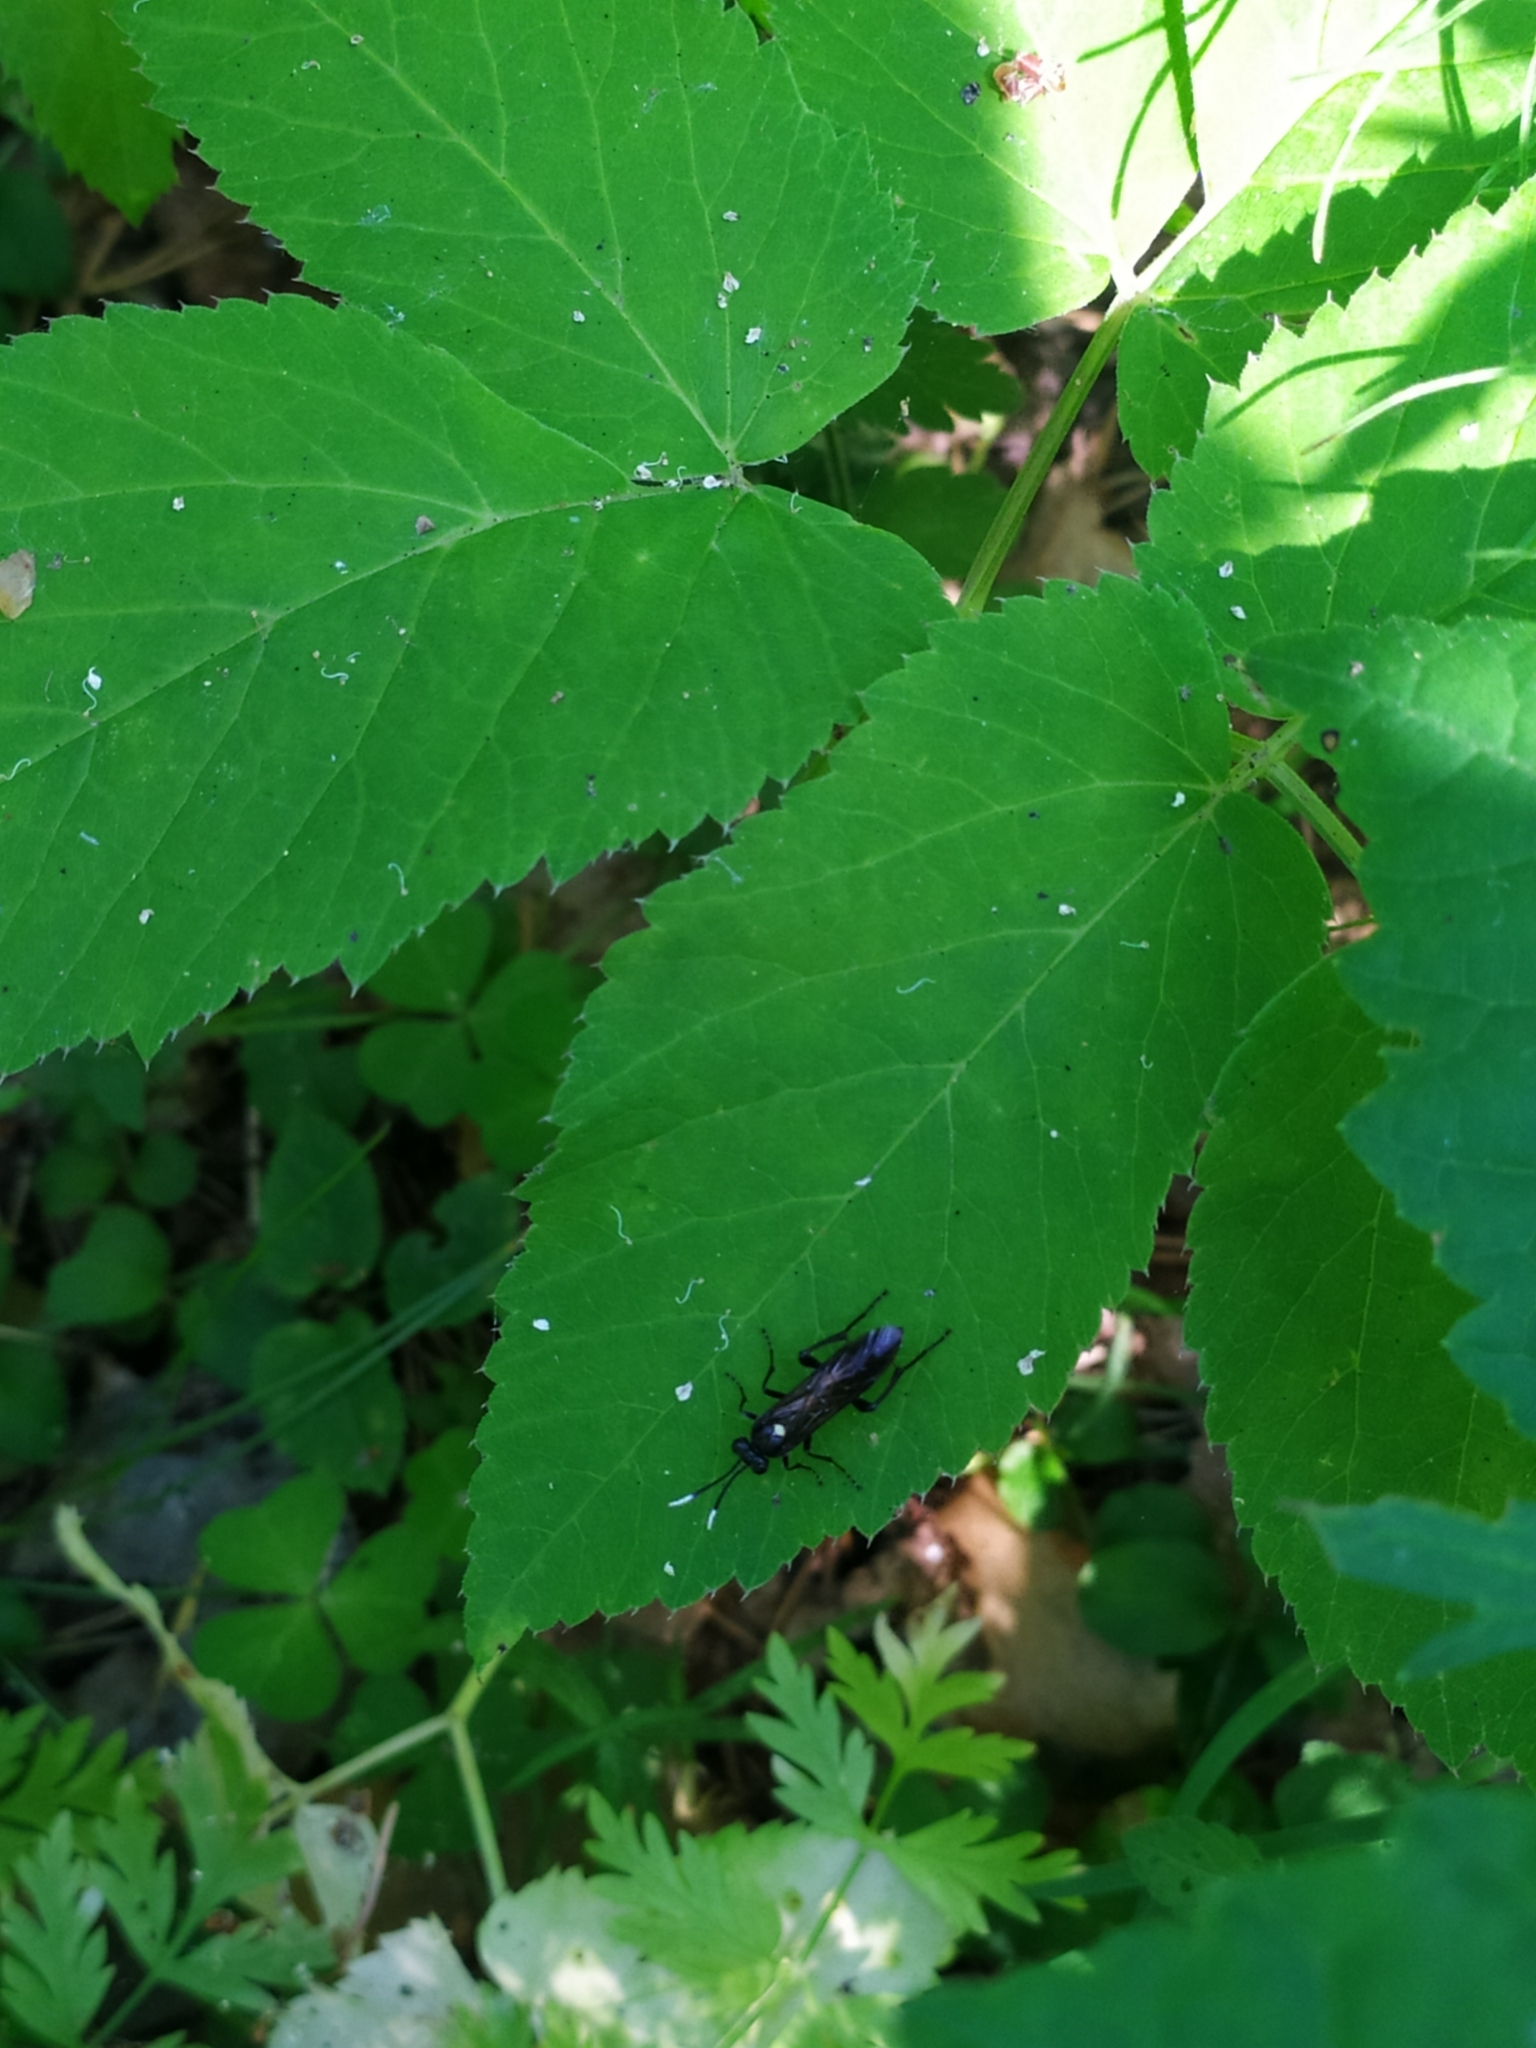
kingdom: Animalia
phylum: Arthropoda
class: Insecta
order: Hymenoptera
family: Tenthredinidae
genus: Macrophya
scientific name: Macrophya infumata
